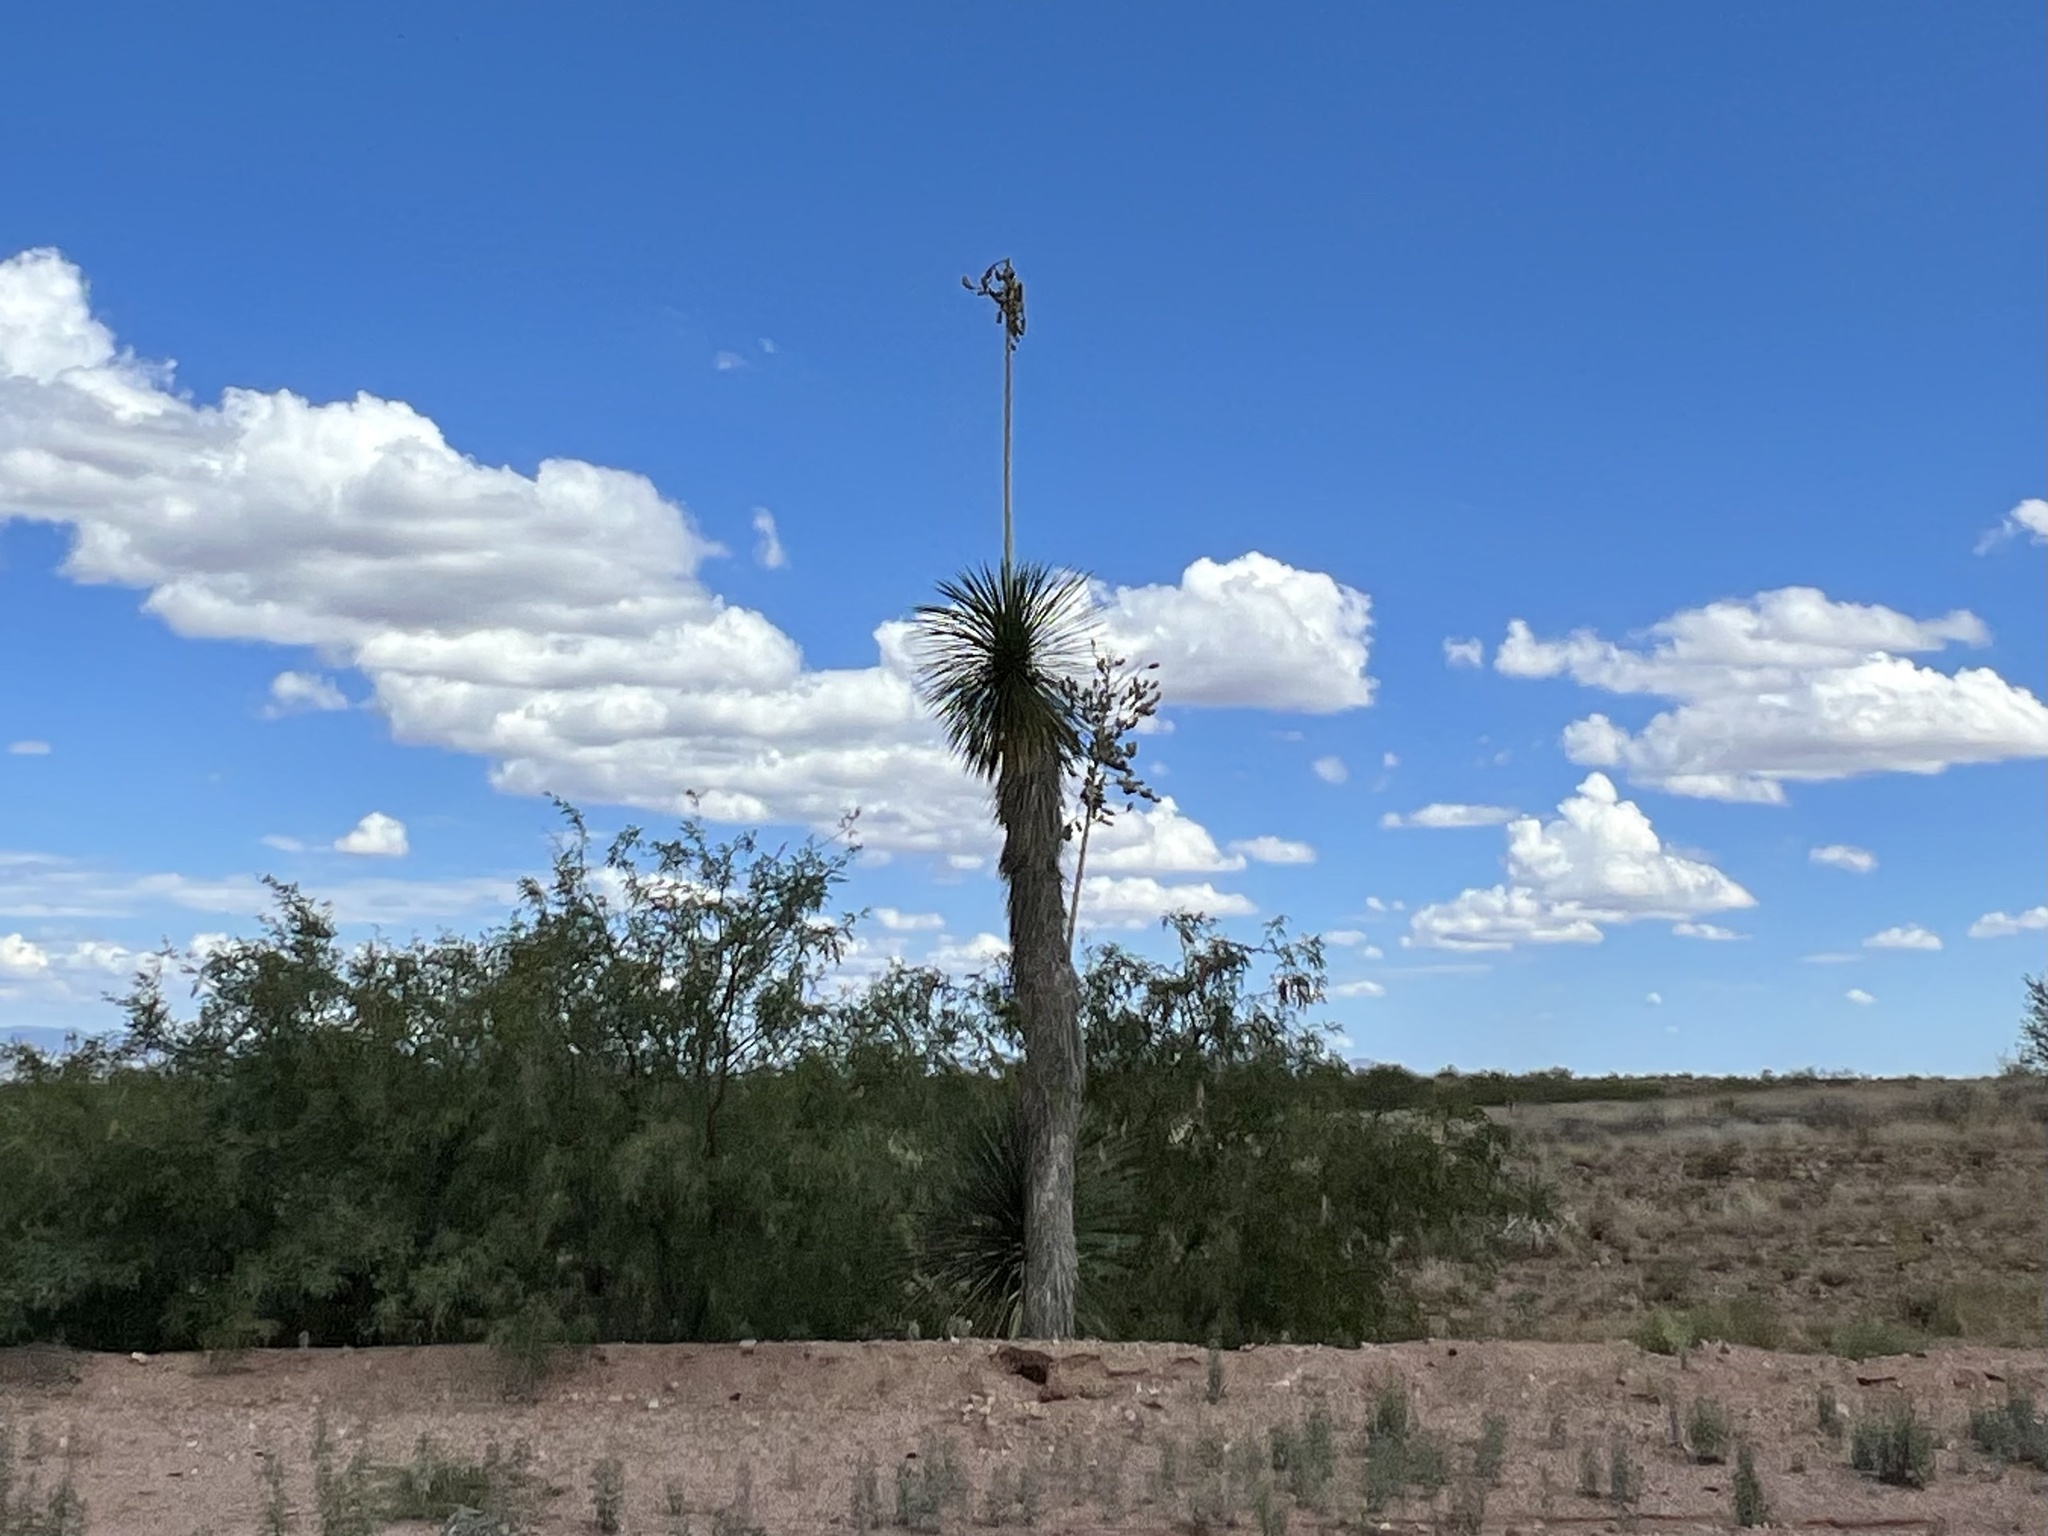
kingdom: Plantae
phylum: Tracheophyta
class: Liliopsida
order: Asparagales
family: Asparagaceae
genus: Yucca
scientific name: Yucca elata
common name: Palmella
